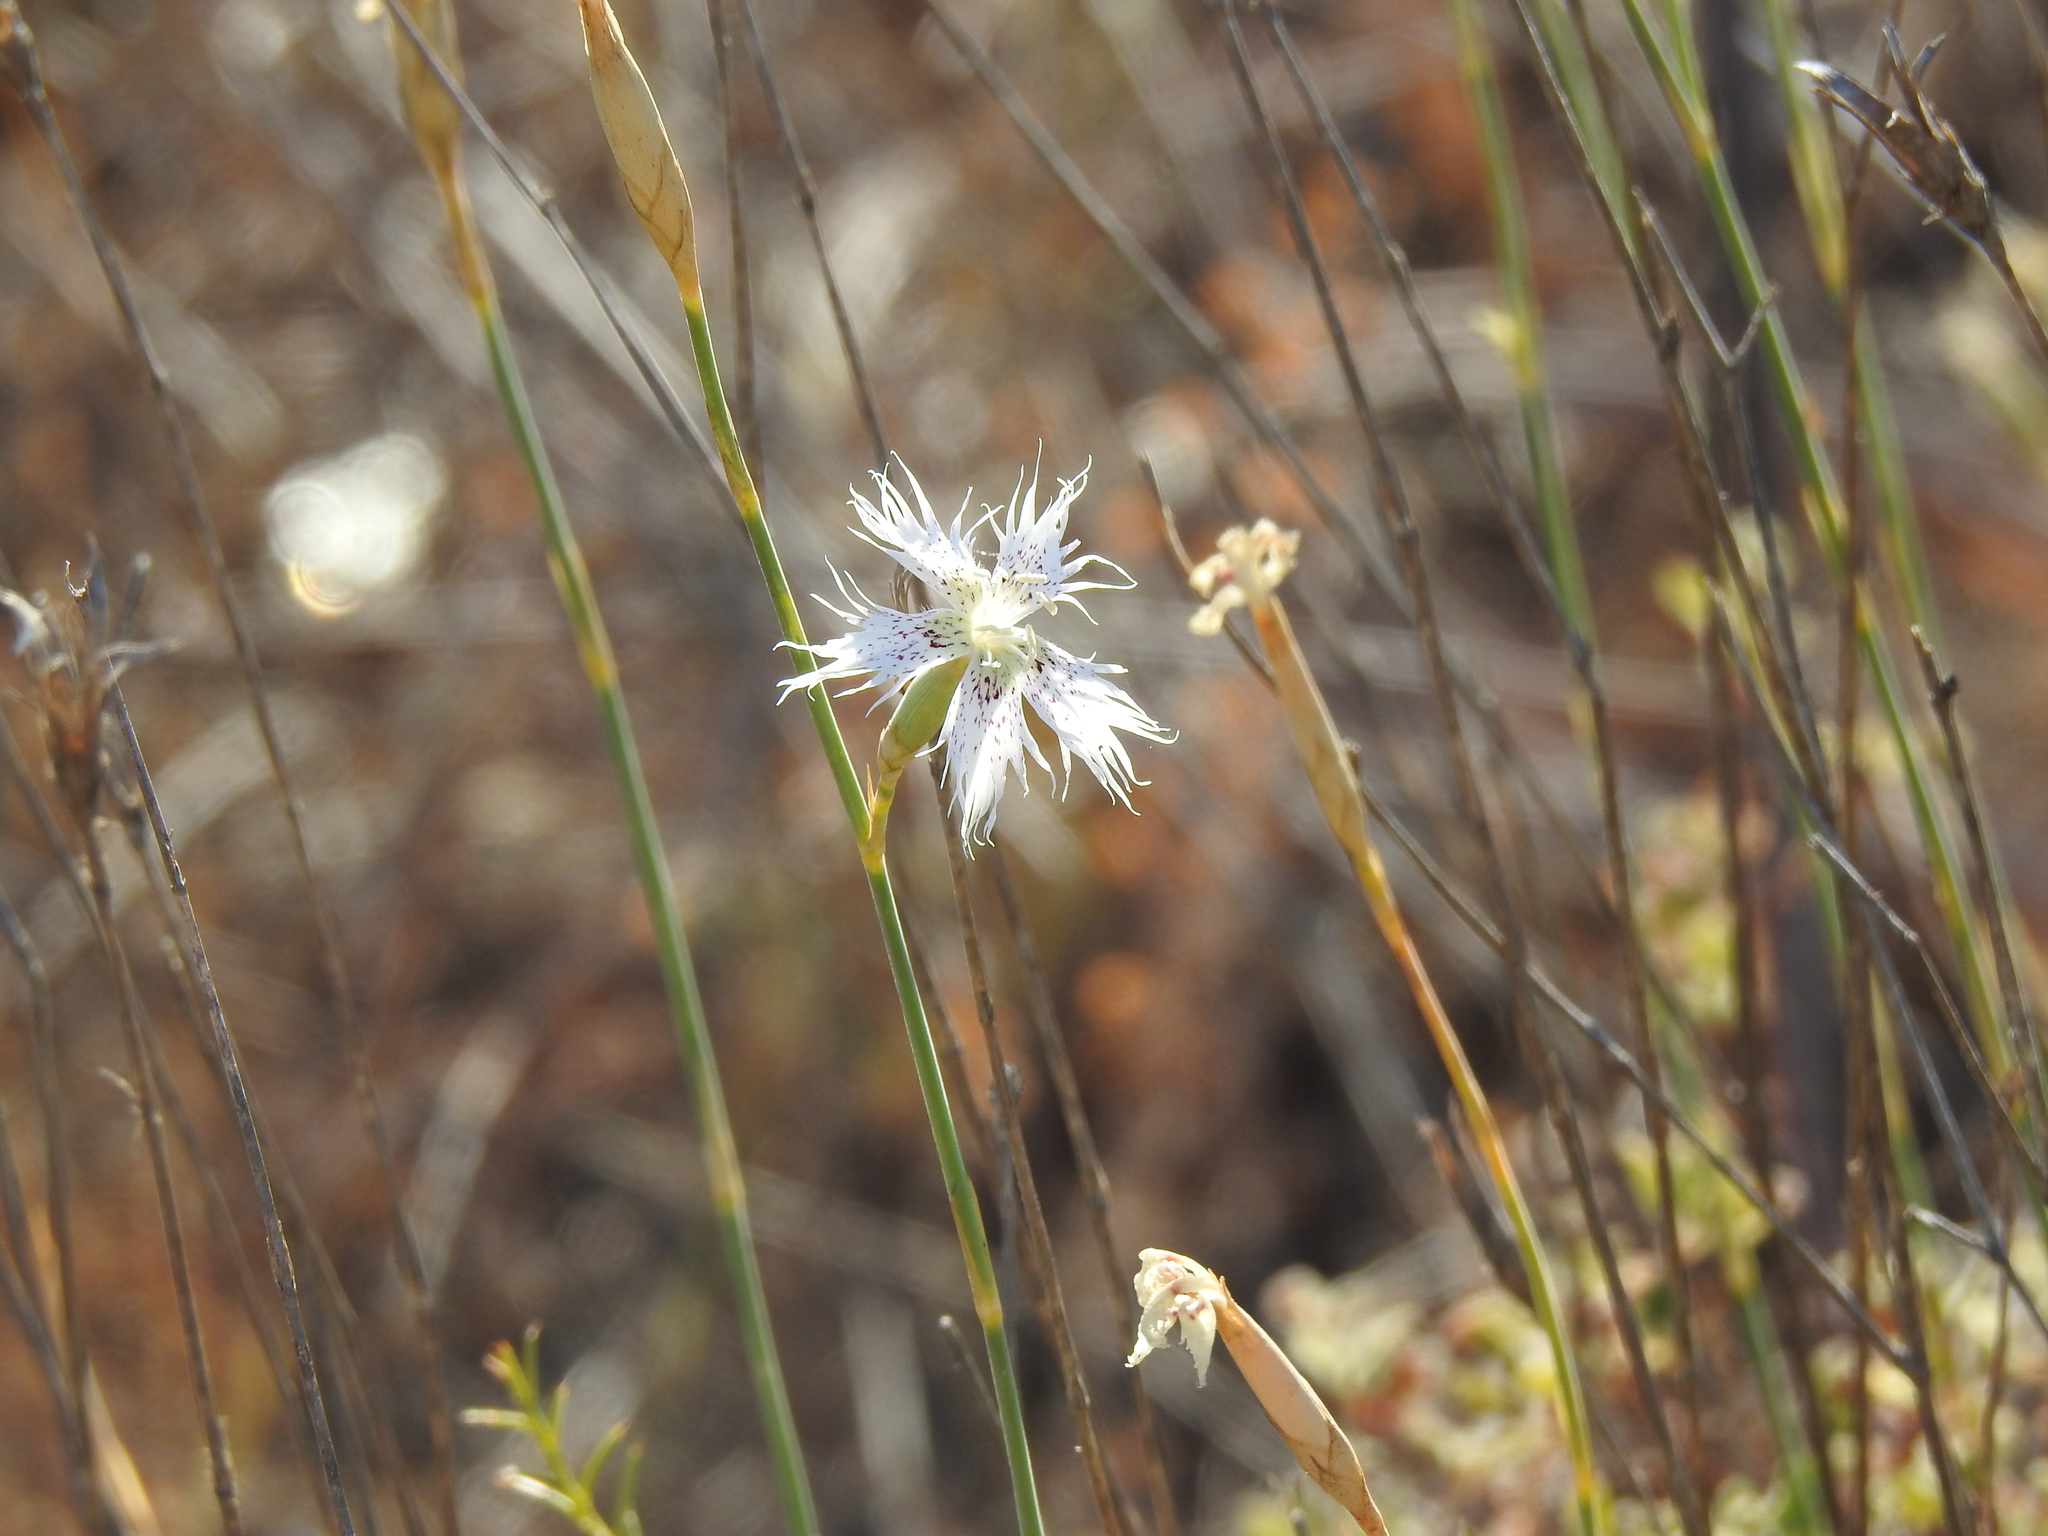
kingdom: Plantae
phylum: Tracheophyta
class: Magnoliopsida
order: Caryophyllales
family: Caryophyllaceae
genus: Dianthus
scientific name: Dianthus broteri
